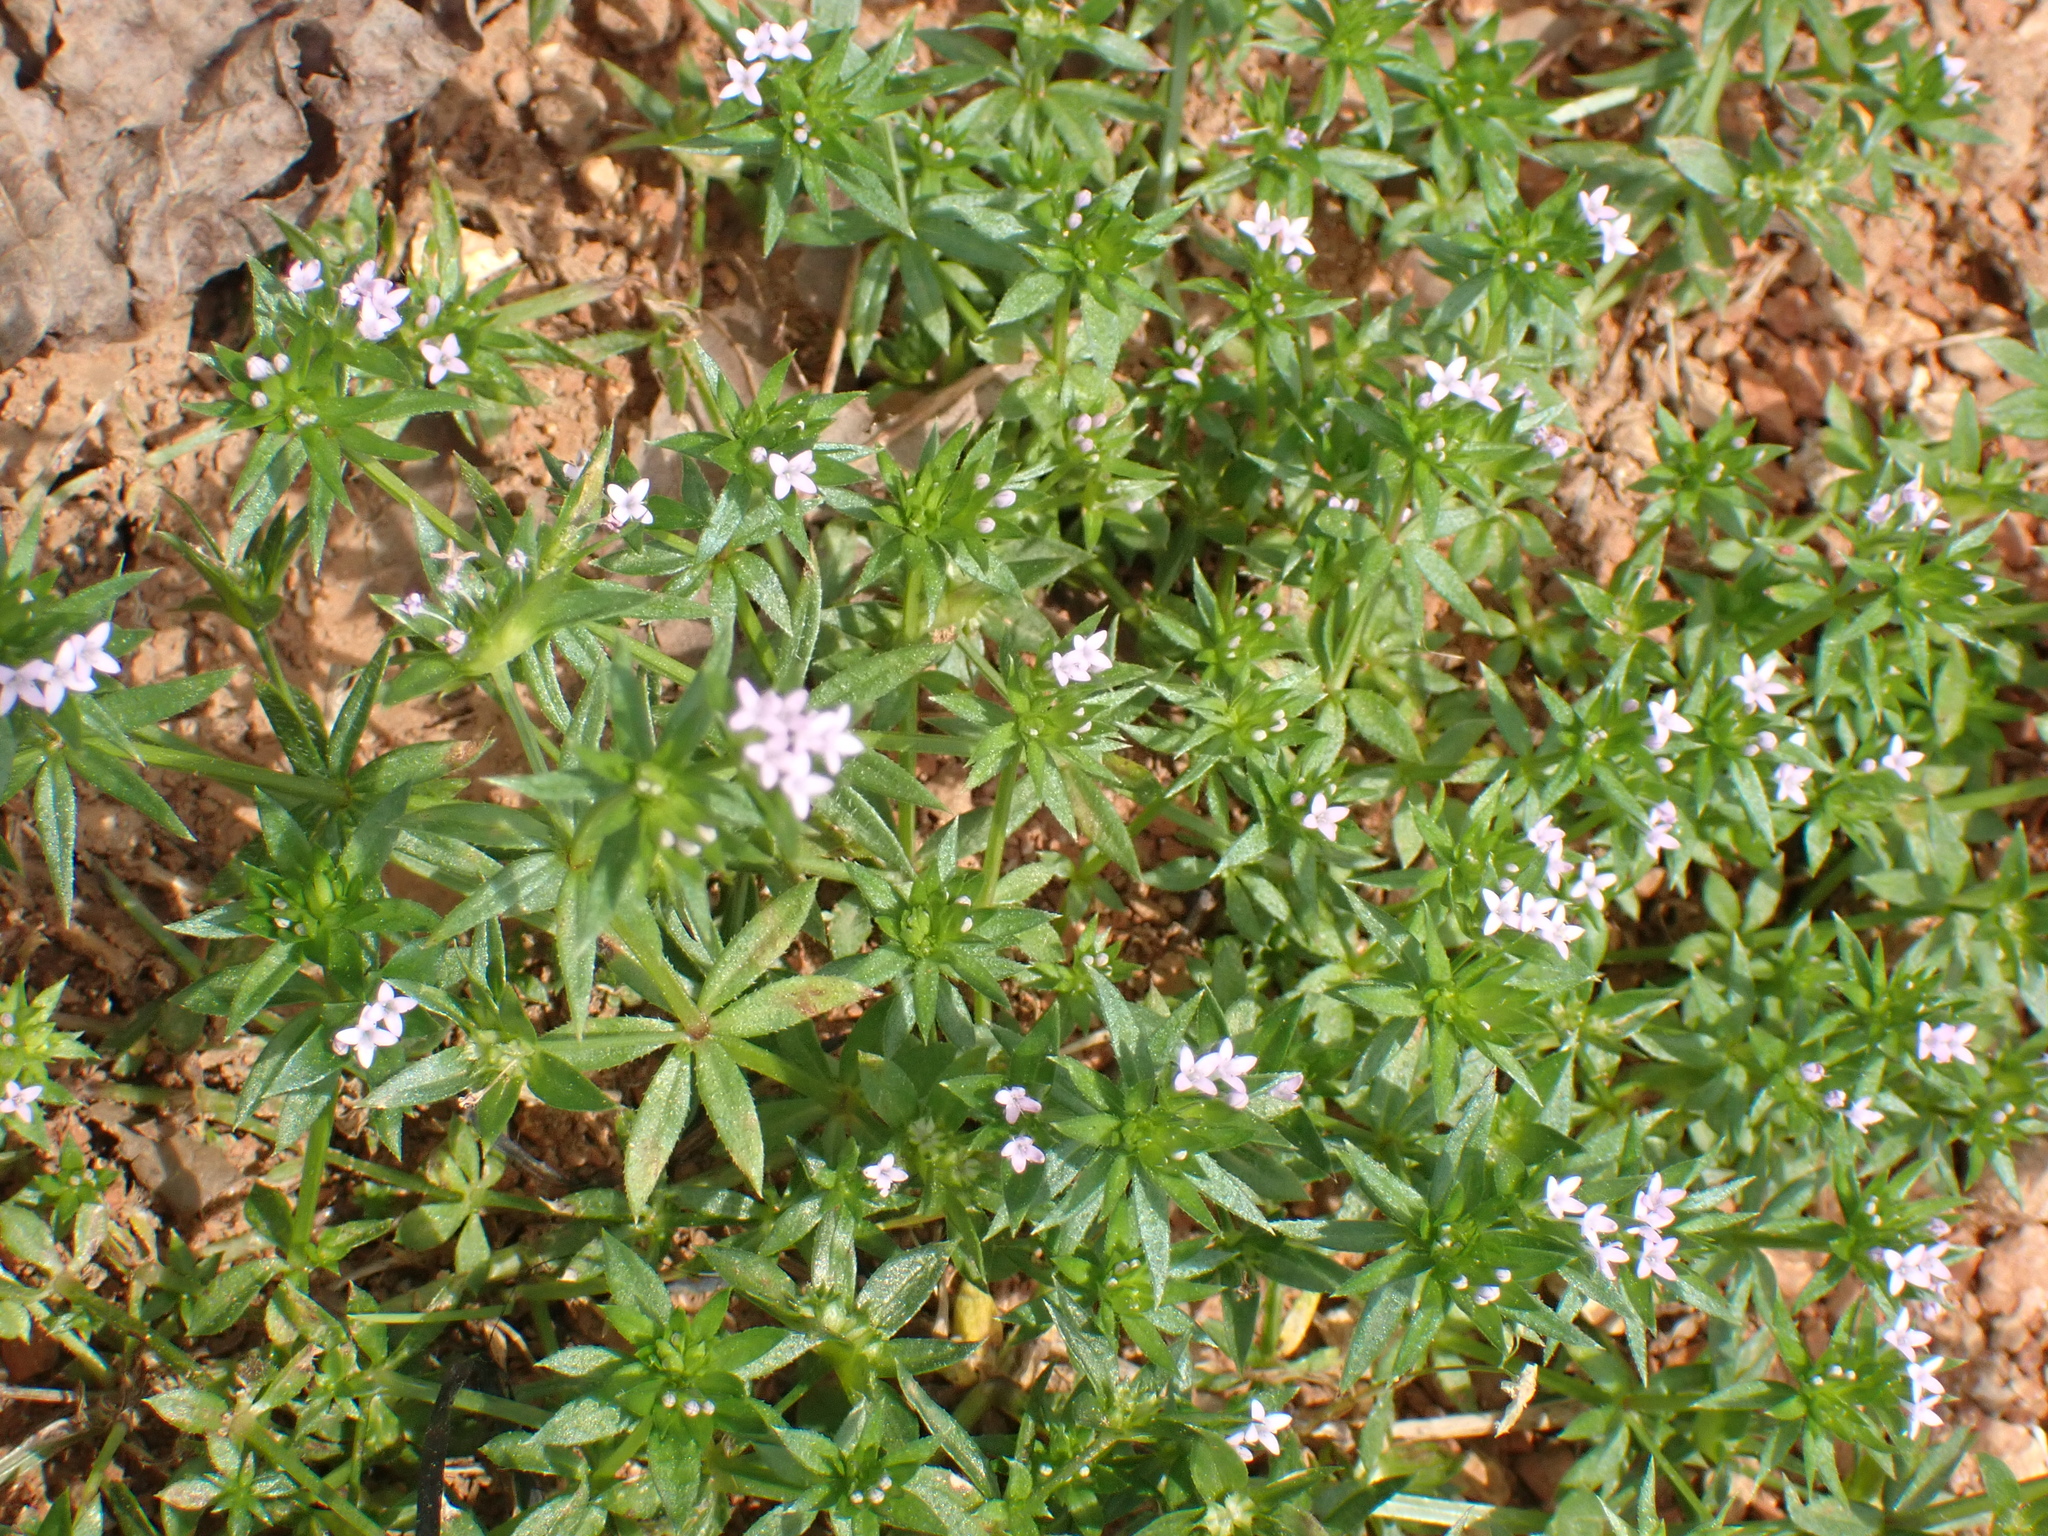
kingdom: Plantae
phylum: Tracheophyta
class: Magnoliopsida
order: Gentianales
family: Rubiaceae
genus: Sherardia
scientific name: Sherardia arvensis
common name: Field madder
